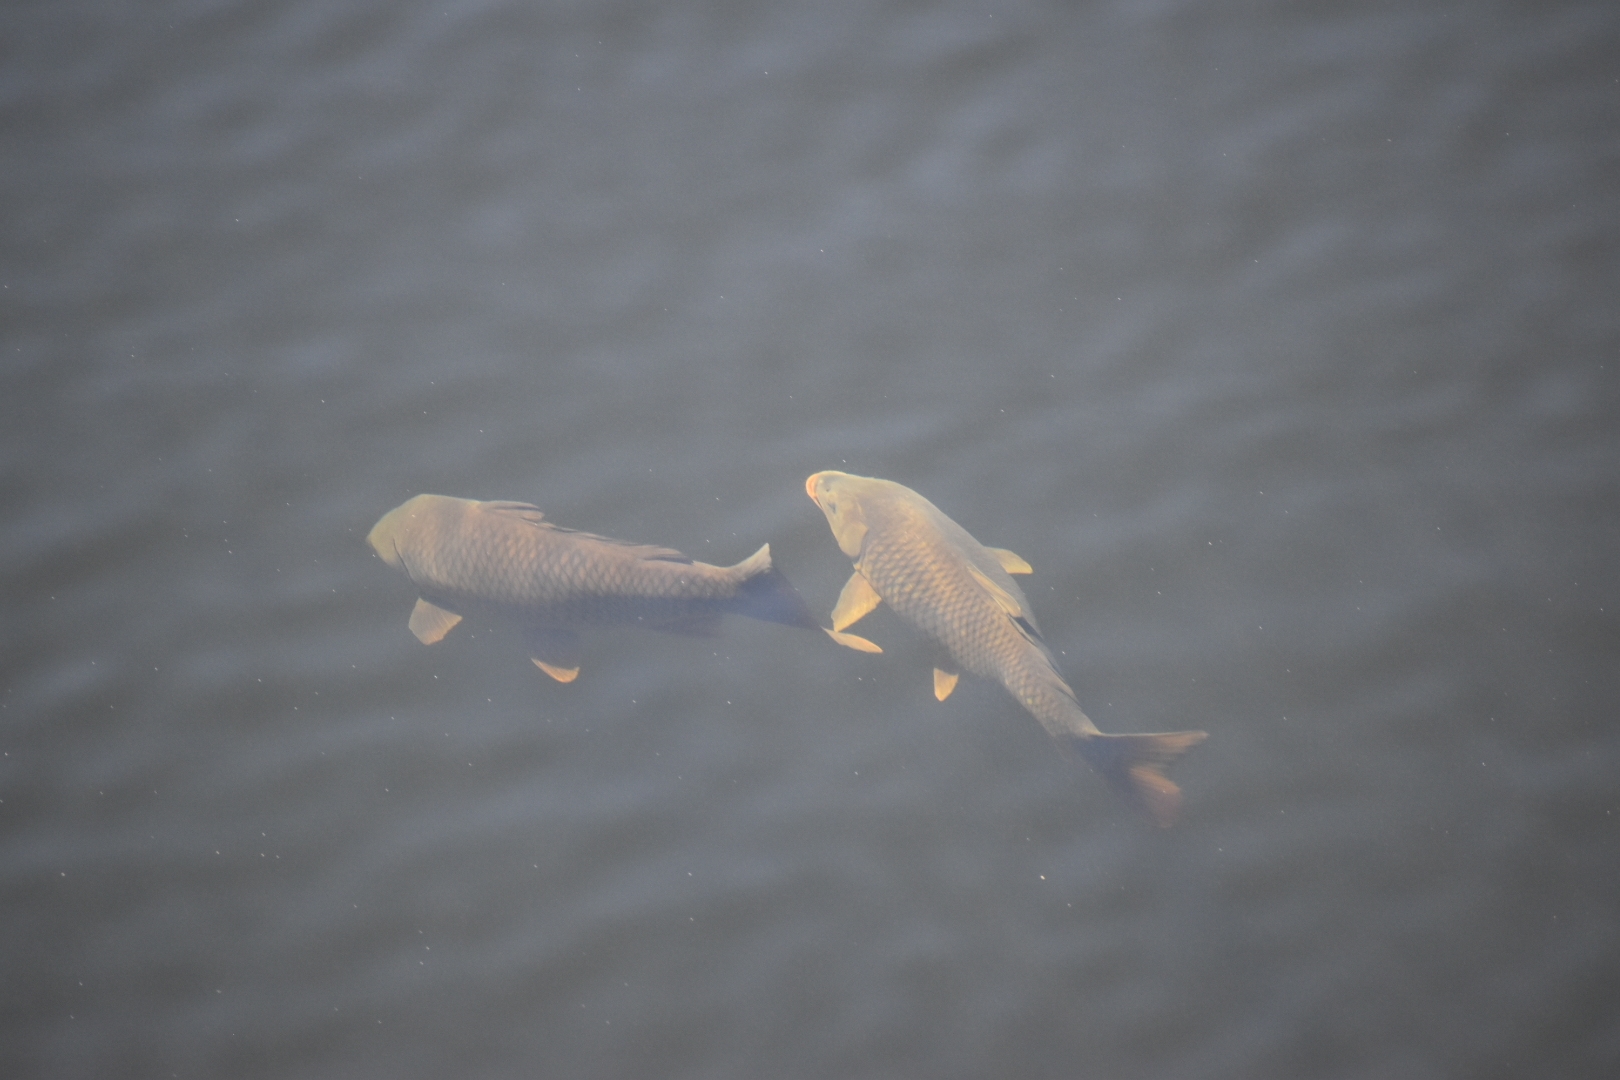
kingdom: Animalia
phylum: Chordata
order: Cypriniformes
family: Cyprinidae
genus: Cyprinus
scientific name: Cyprinus carpio
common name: Common carp
